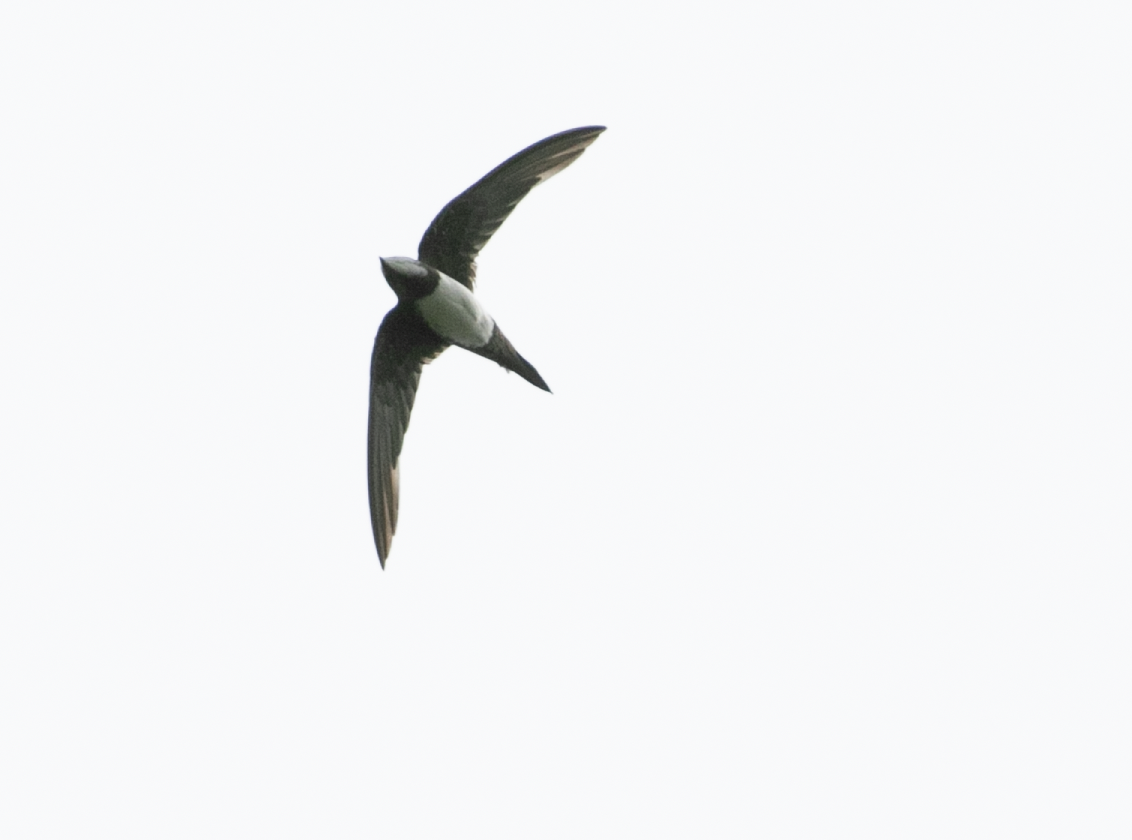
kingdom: Animalia
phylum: Chordata
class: Aves
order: Apodiformes
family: Apodidae
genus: Tachymarptis
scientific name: Tachymarptis melba
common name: Alpine swift
